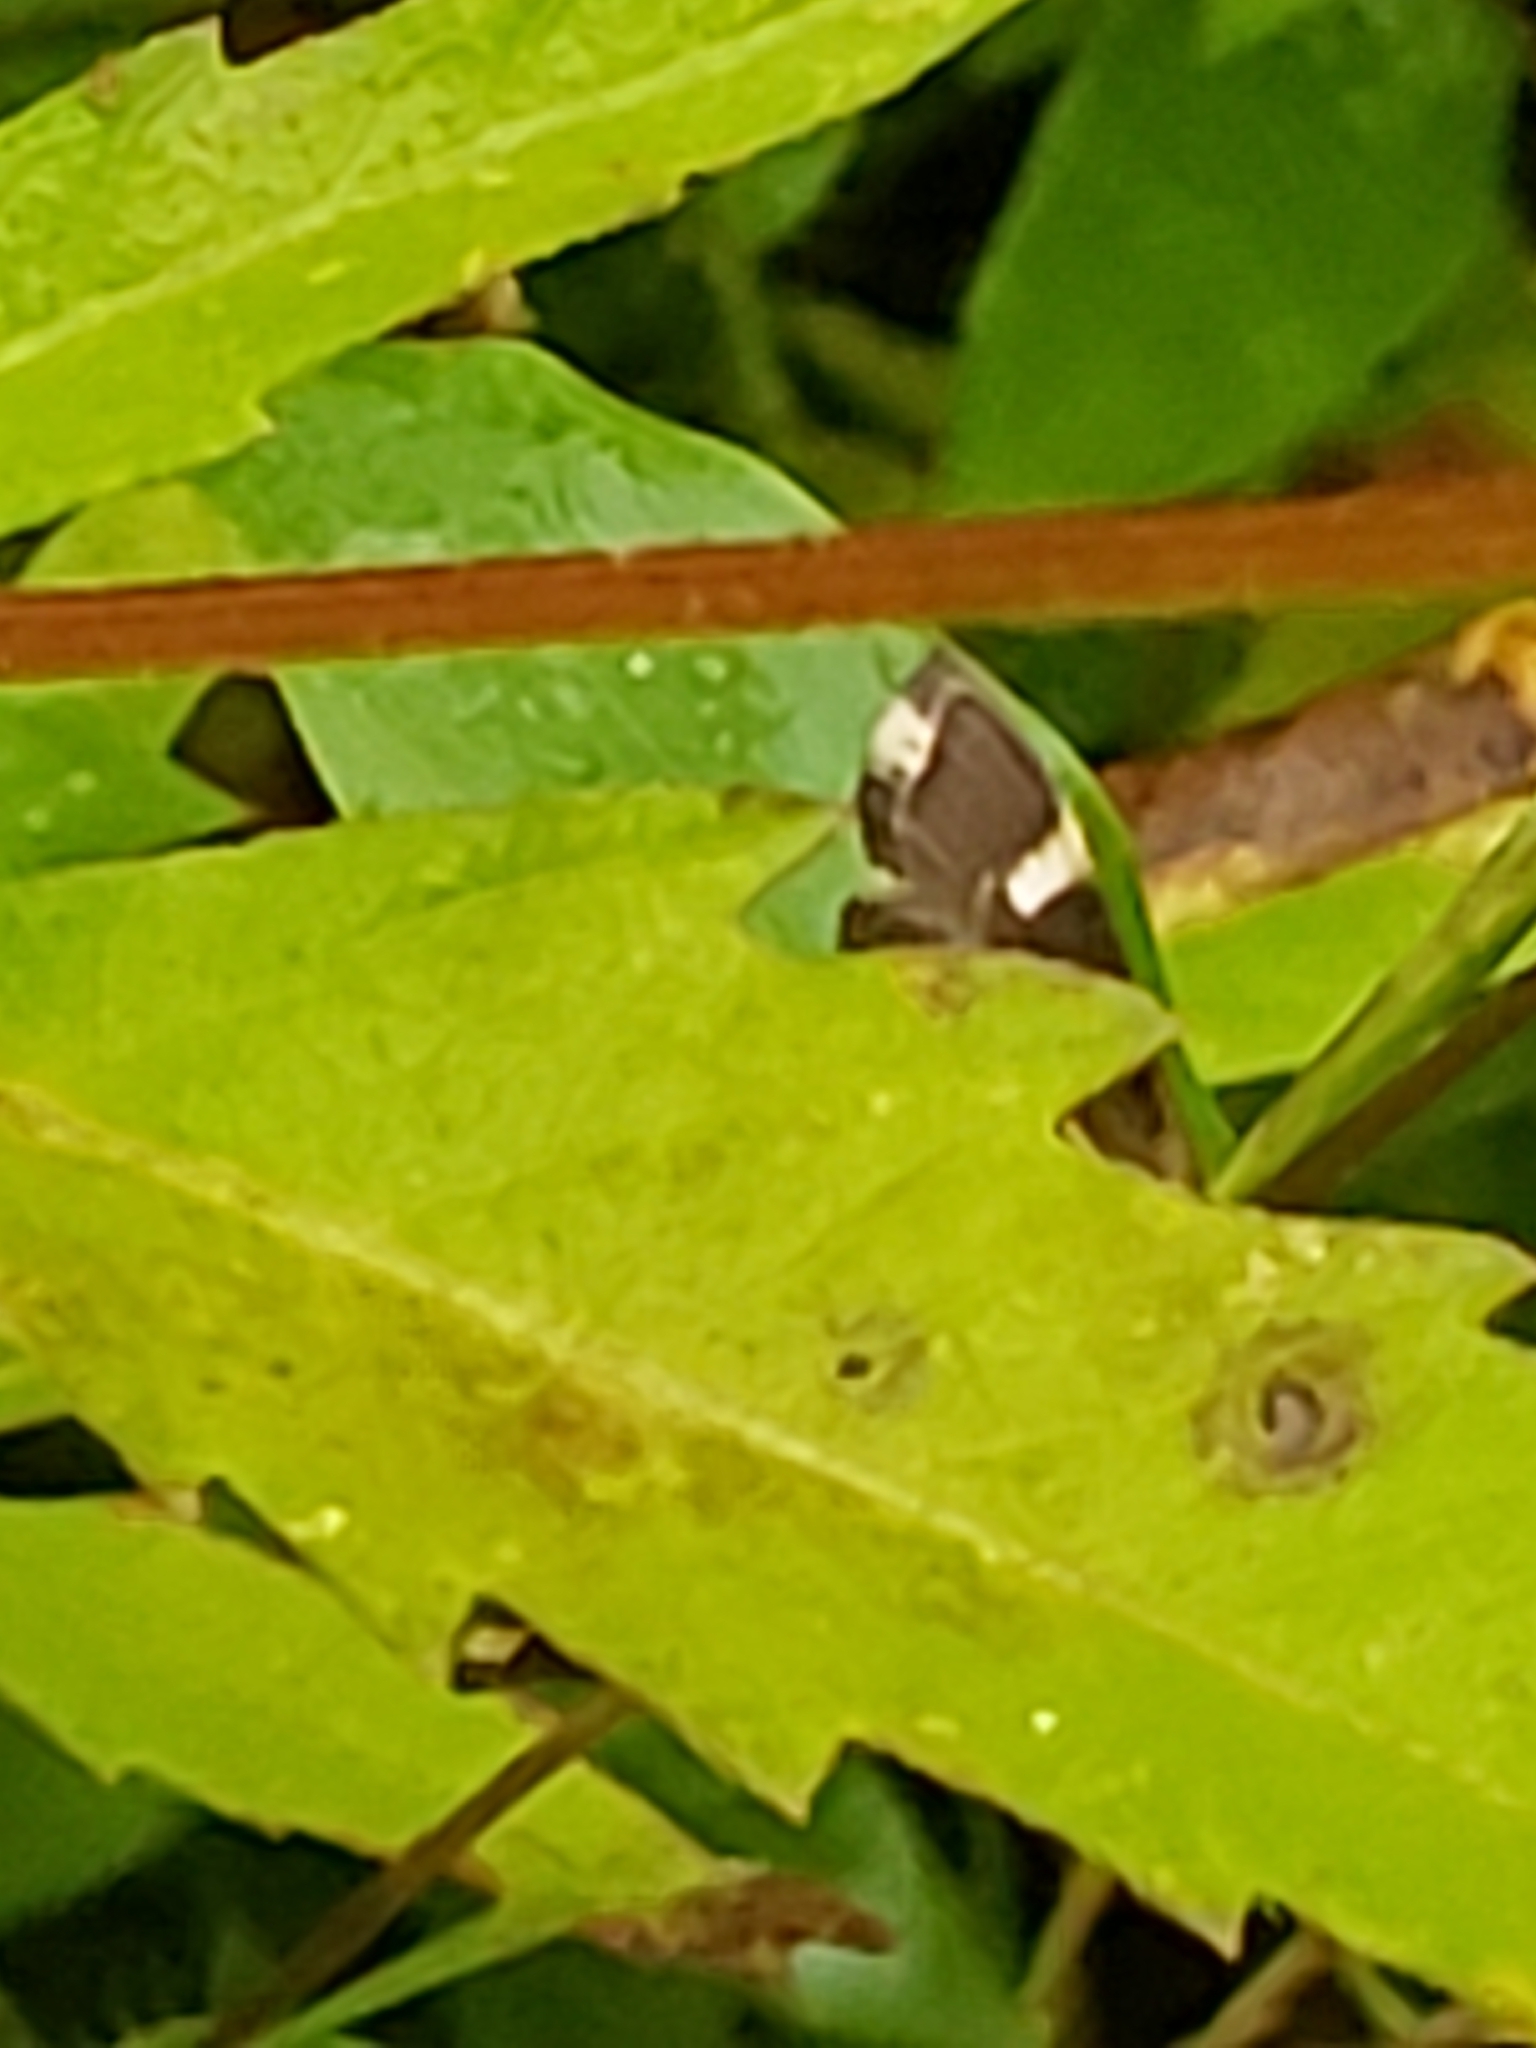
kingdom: Animalia
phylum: Arthropoda
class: Insecta
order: Lepidoptera
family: Crambidae
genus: Spoladea
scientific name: Spoladea recurvalis
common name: Beet webworm moth
